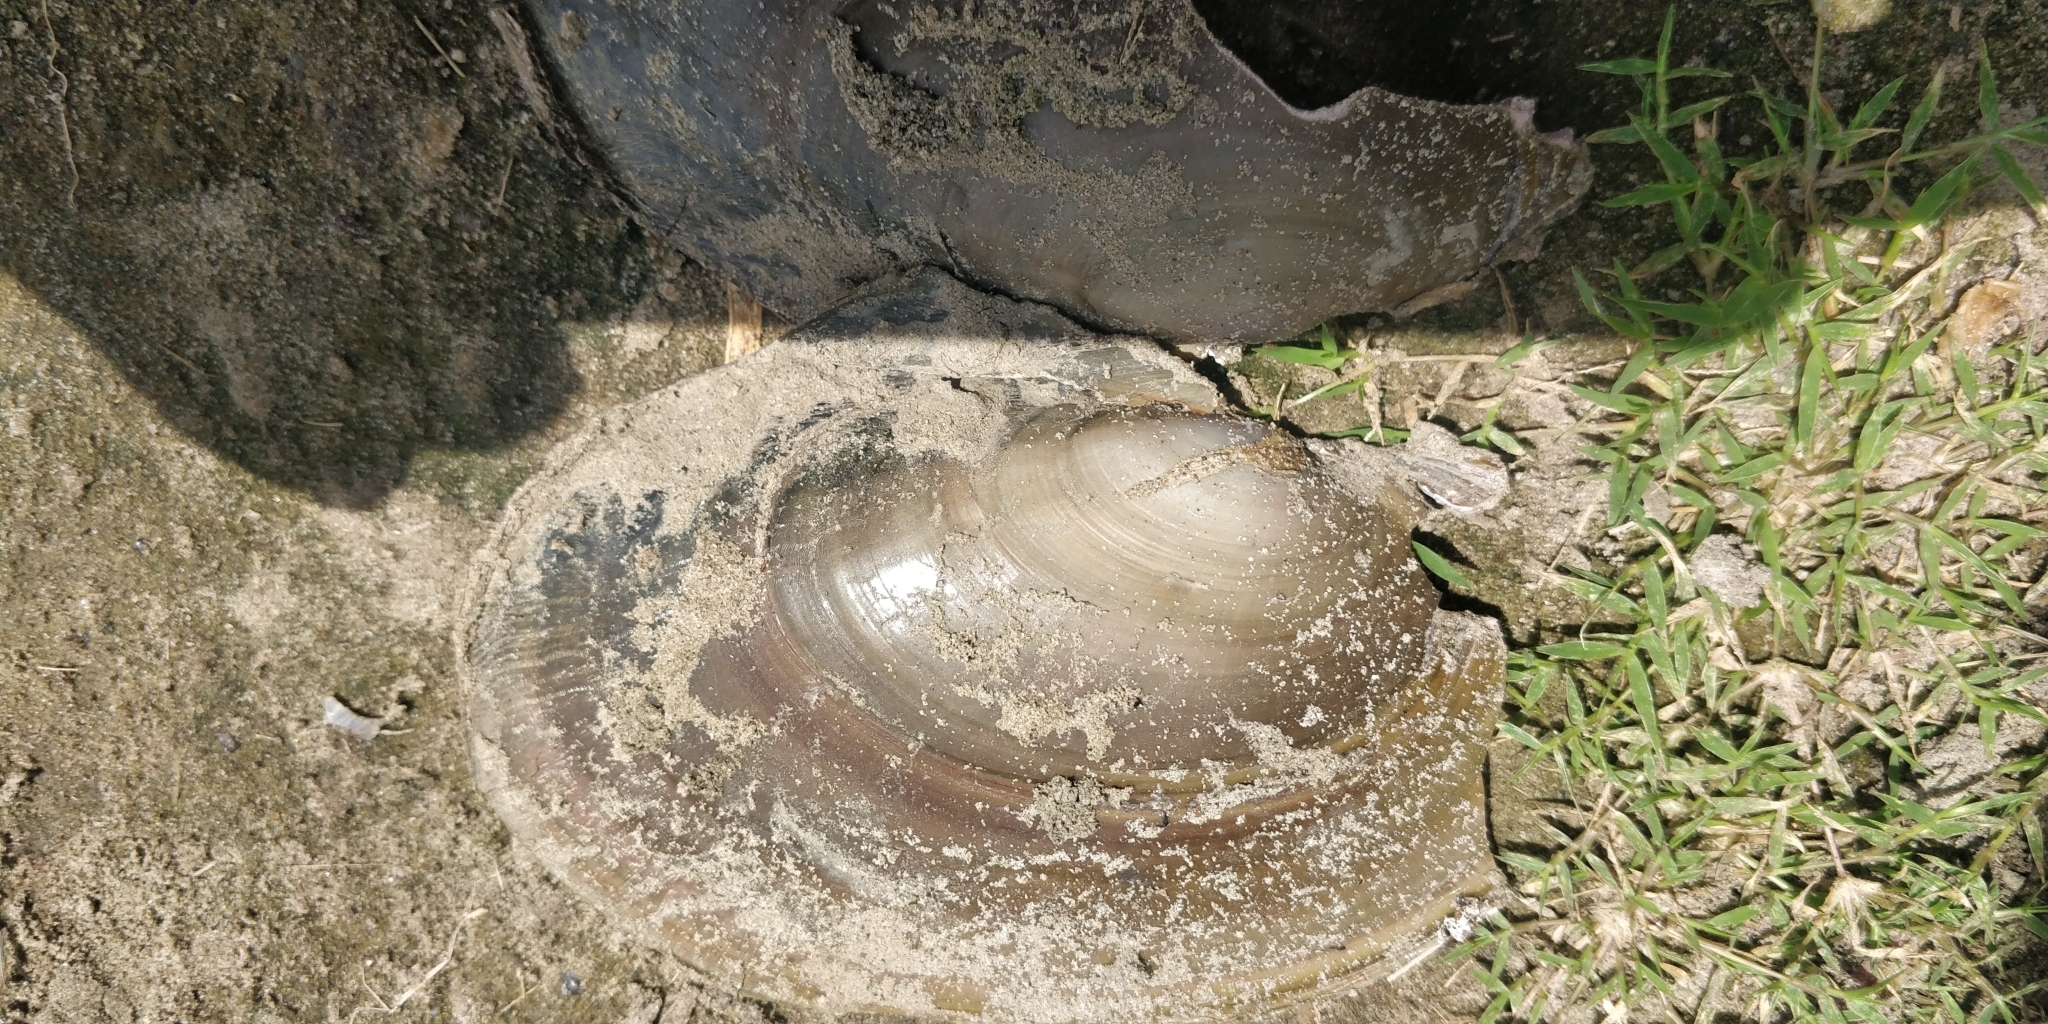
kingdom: Animalia
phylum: Mollusca
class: Bivalvia
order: Unionida
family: Unionidae
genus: Potamilus
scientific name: Potamilus ohiensis
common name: Pink papershell
